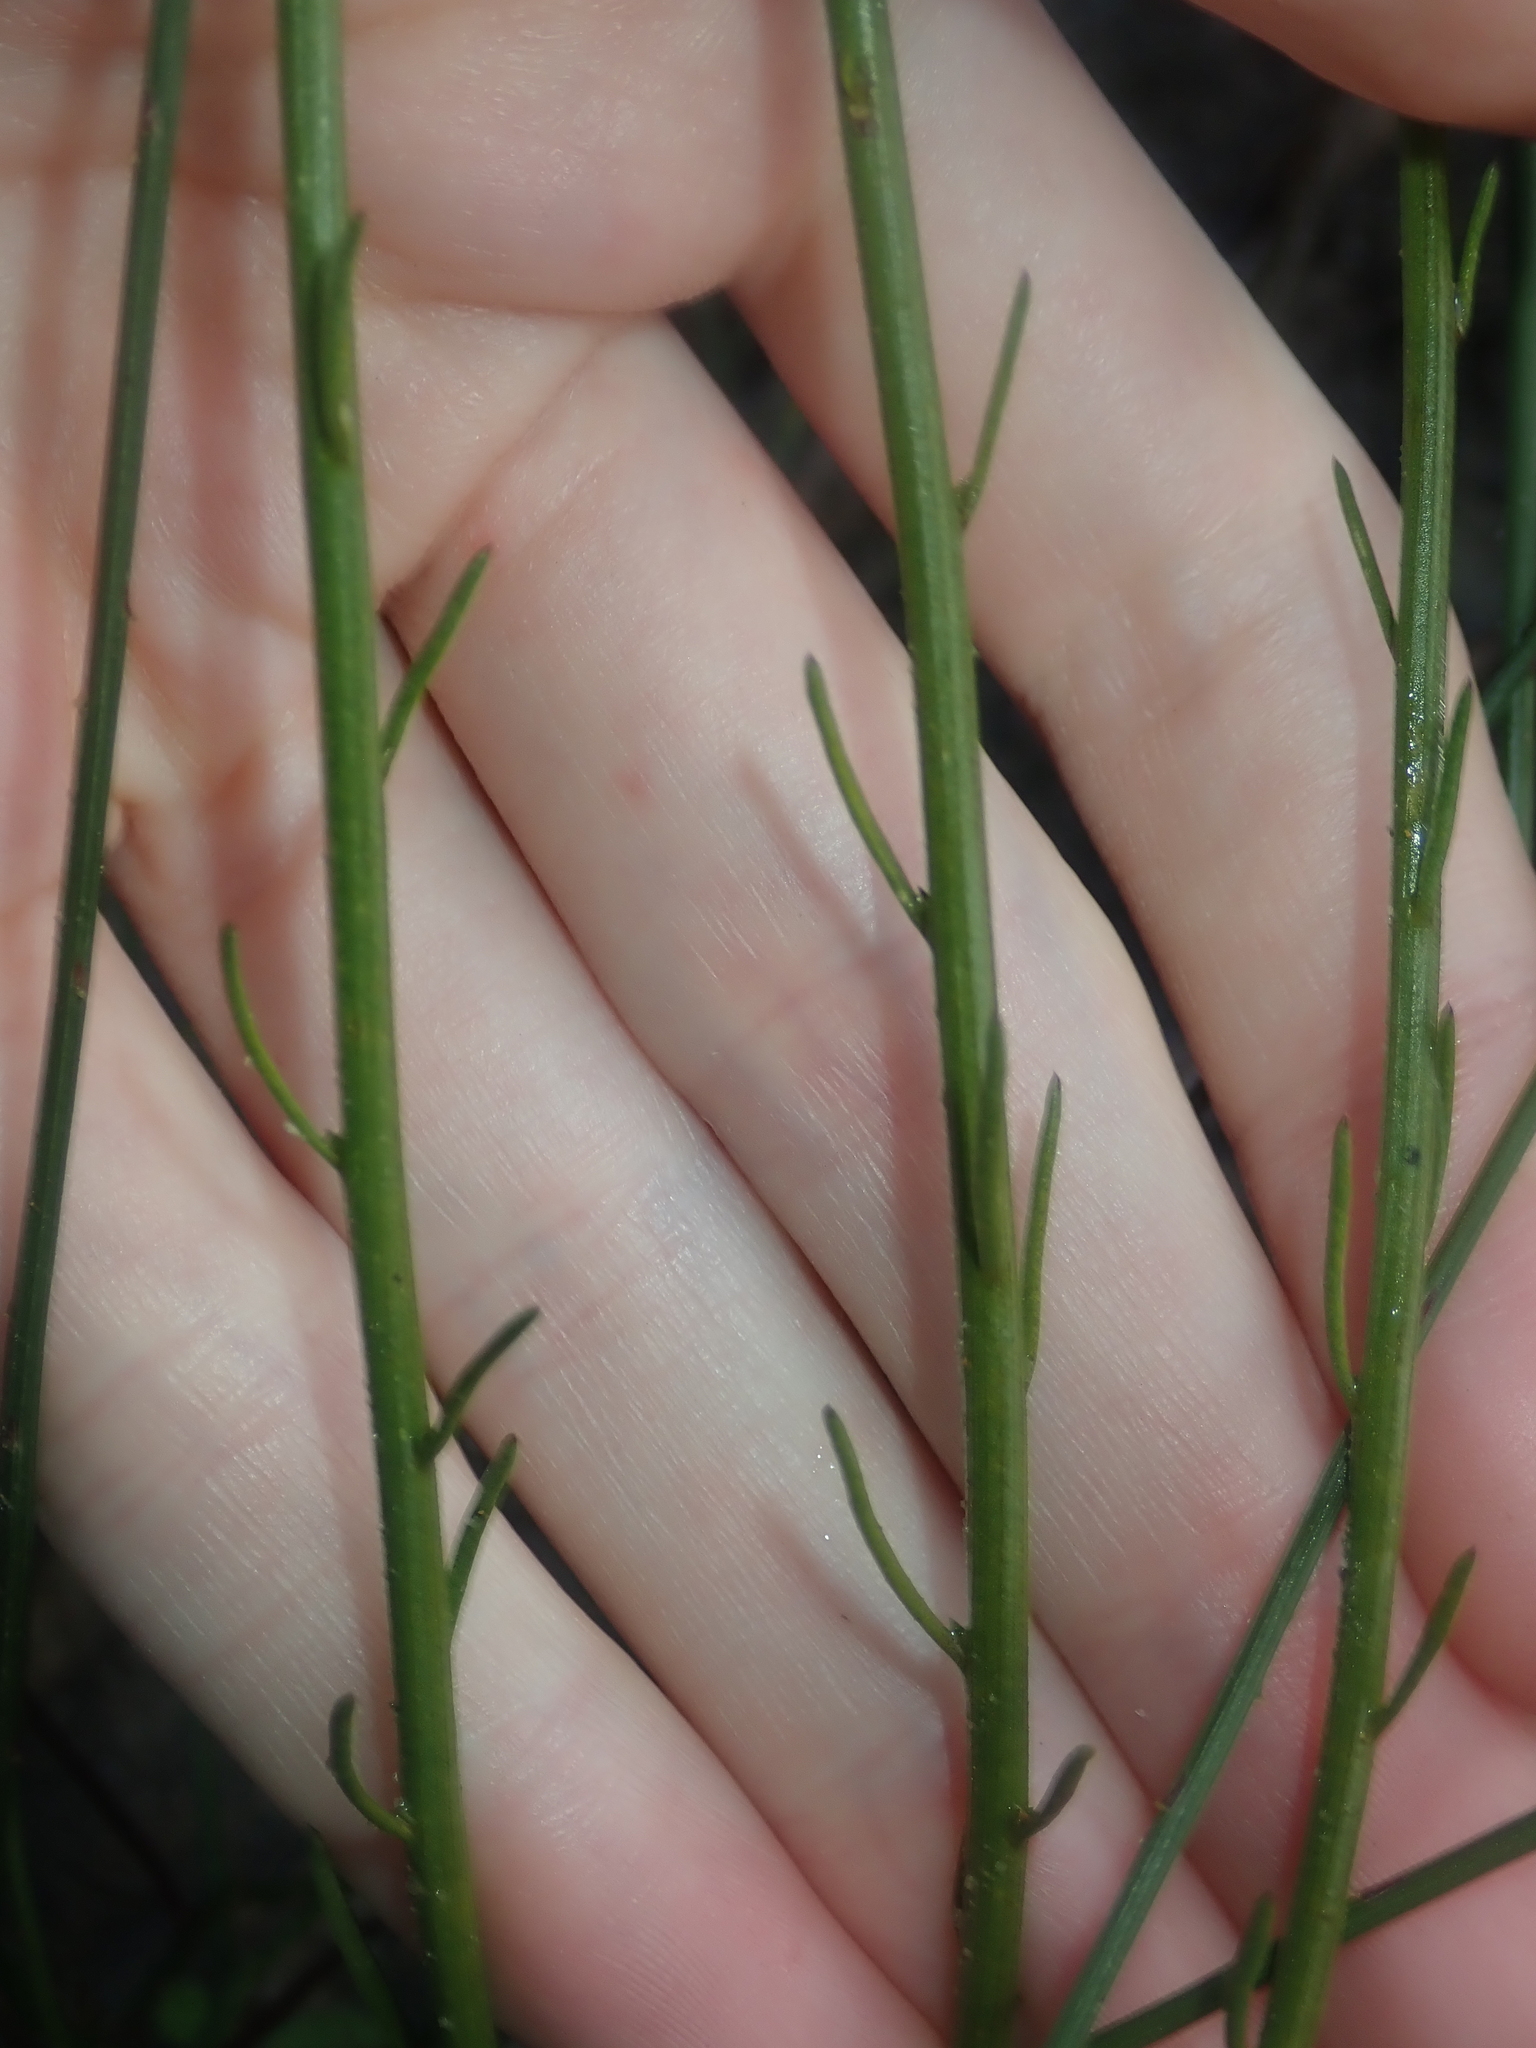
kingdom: Plantae
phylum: Tracheophyta
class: Magnoliopsida
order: Celastrales
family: Celastraceae
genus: Tripterococcus
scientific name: Tripterococcus brunonis
